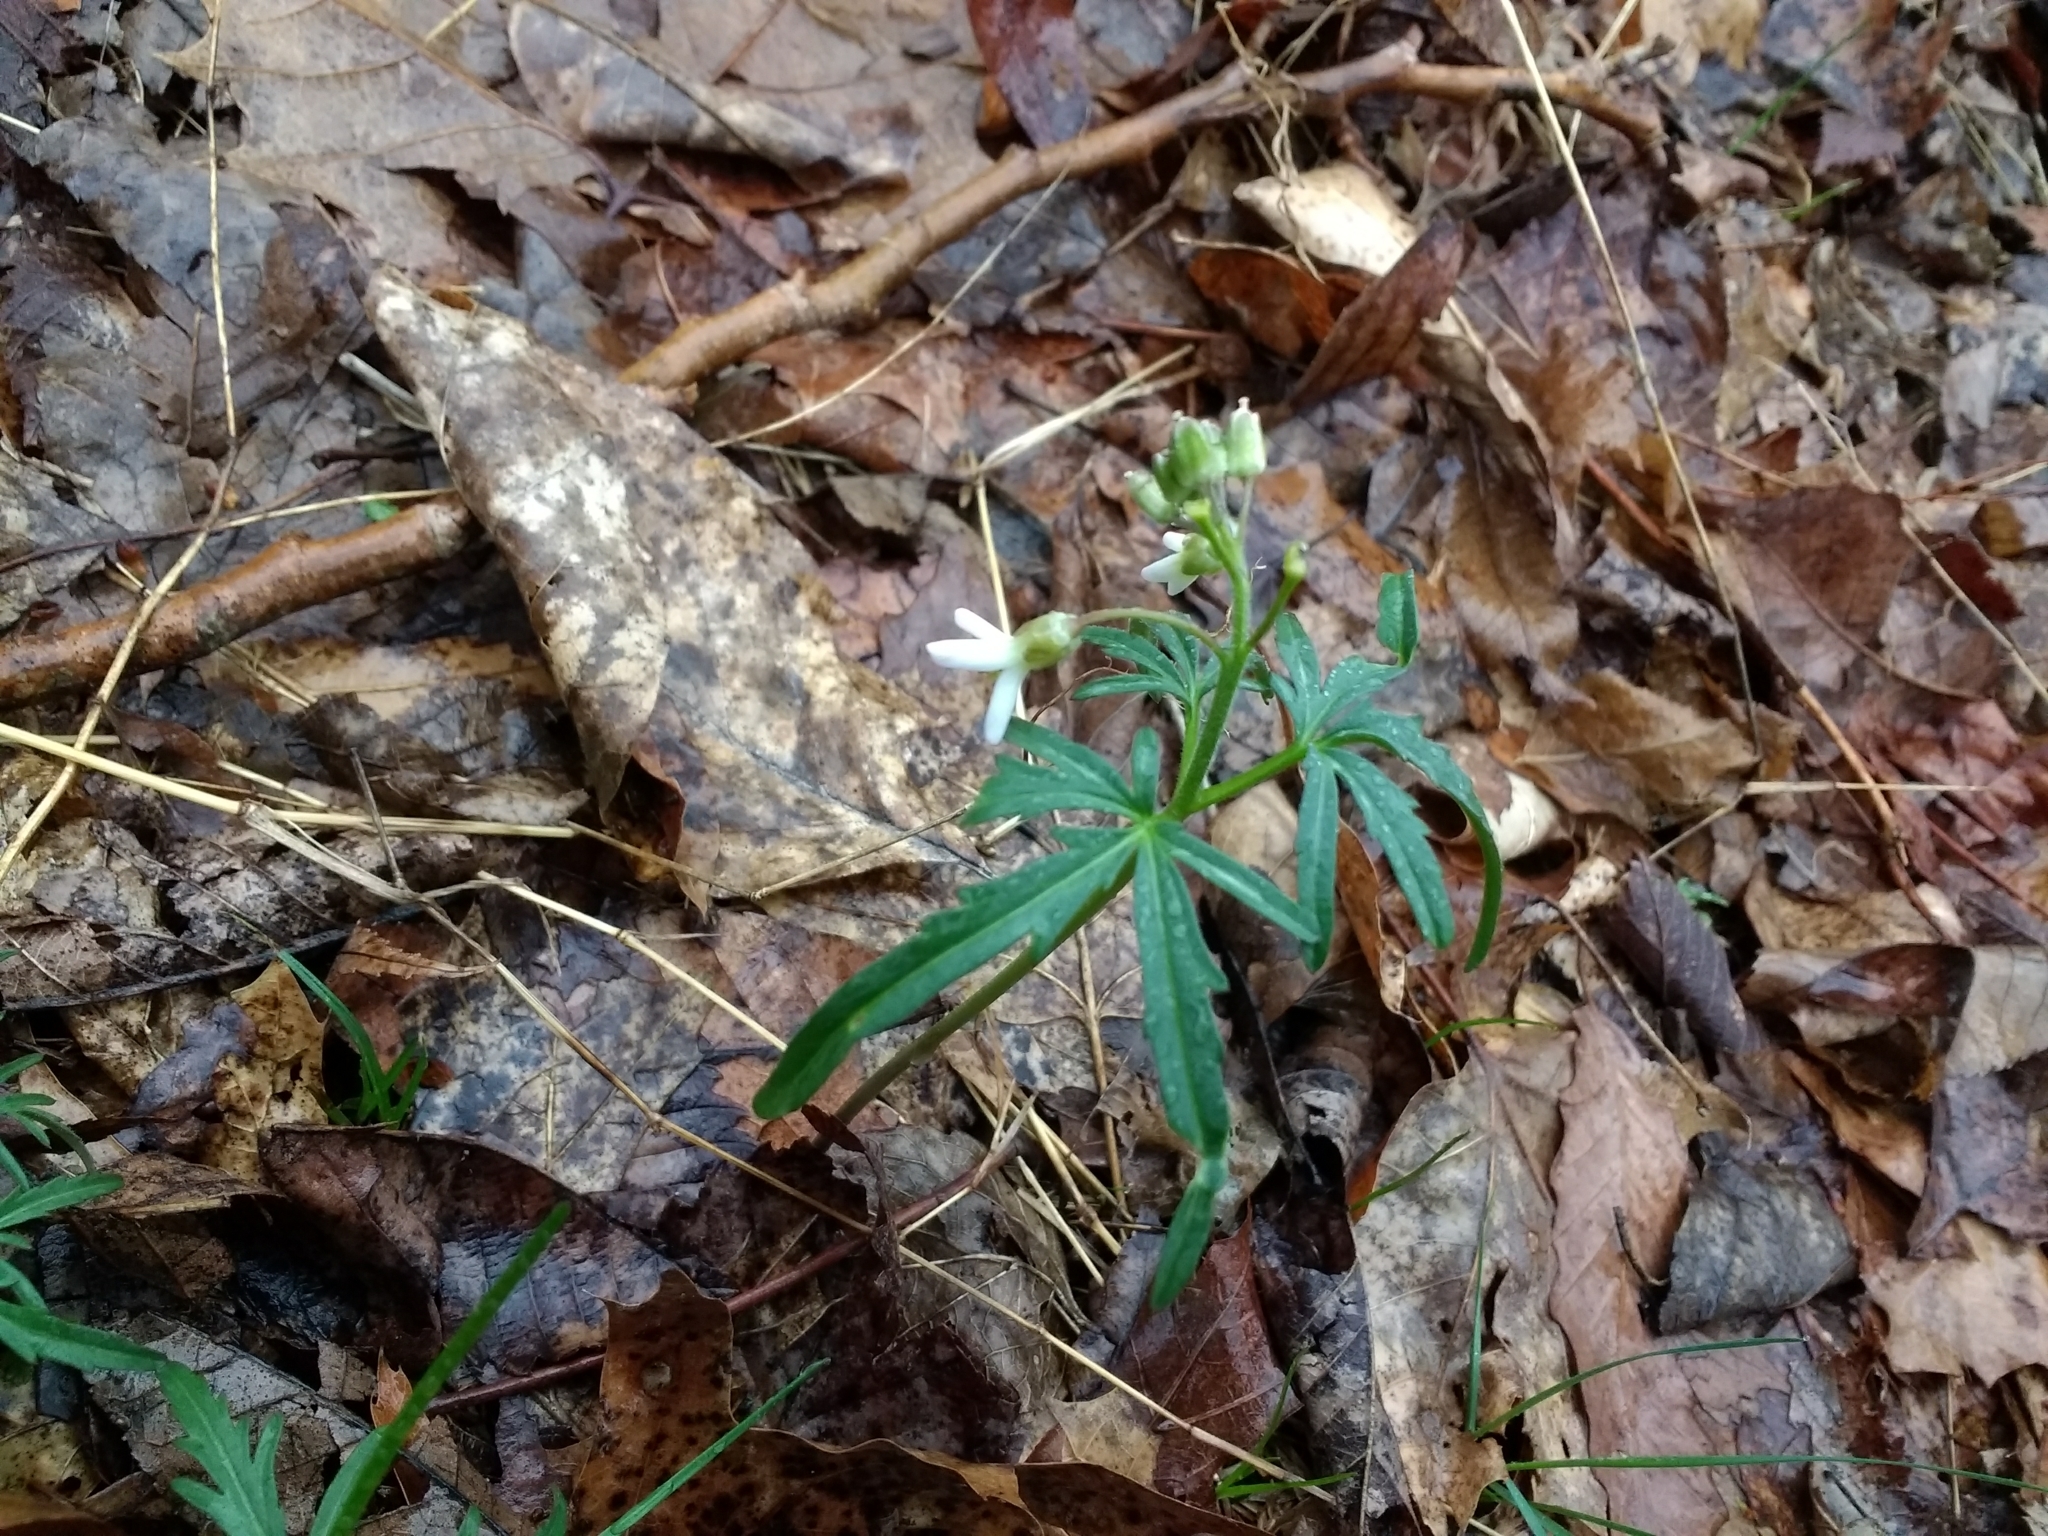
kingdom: Plantae
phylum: Tracheophyta
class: Magnoliopsida
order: Brassicales
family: Brassicaceae
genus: Cardamine
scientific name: Cardamine concatenata
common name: Cut-leaf toothcup
